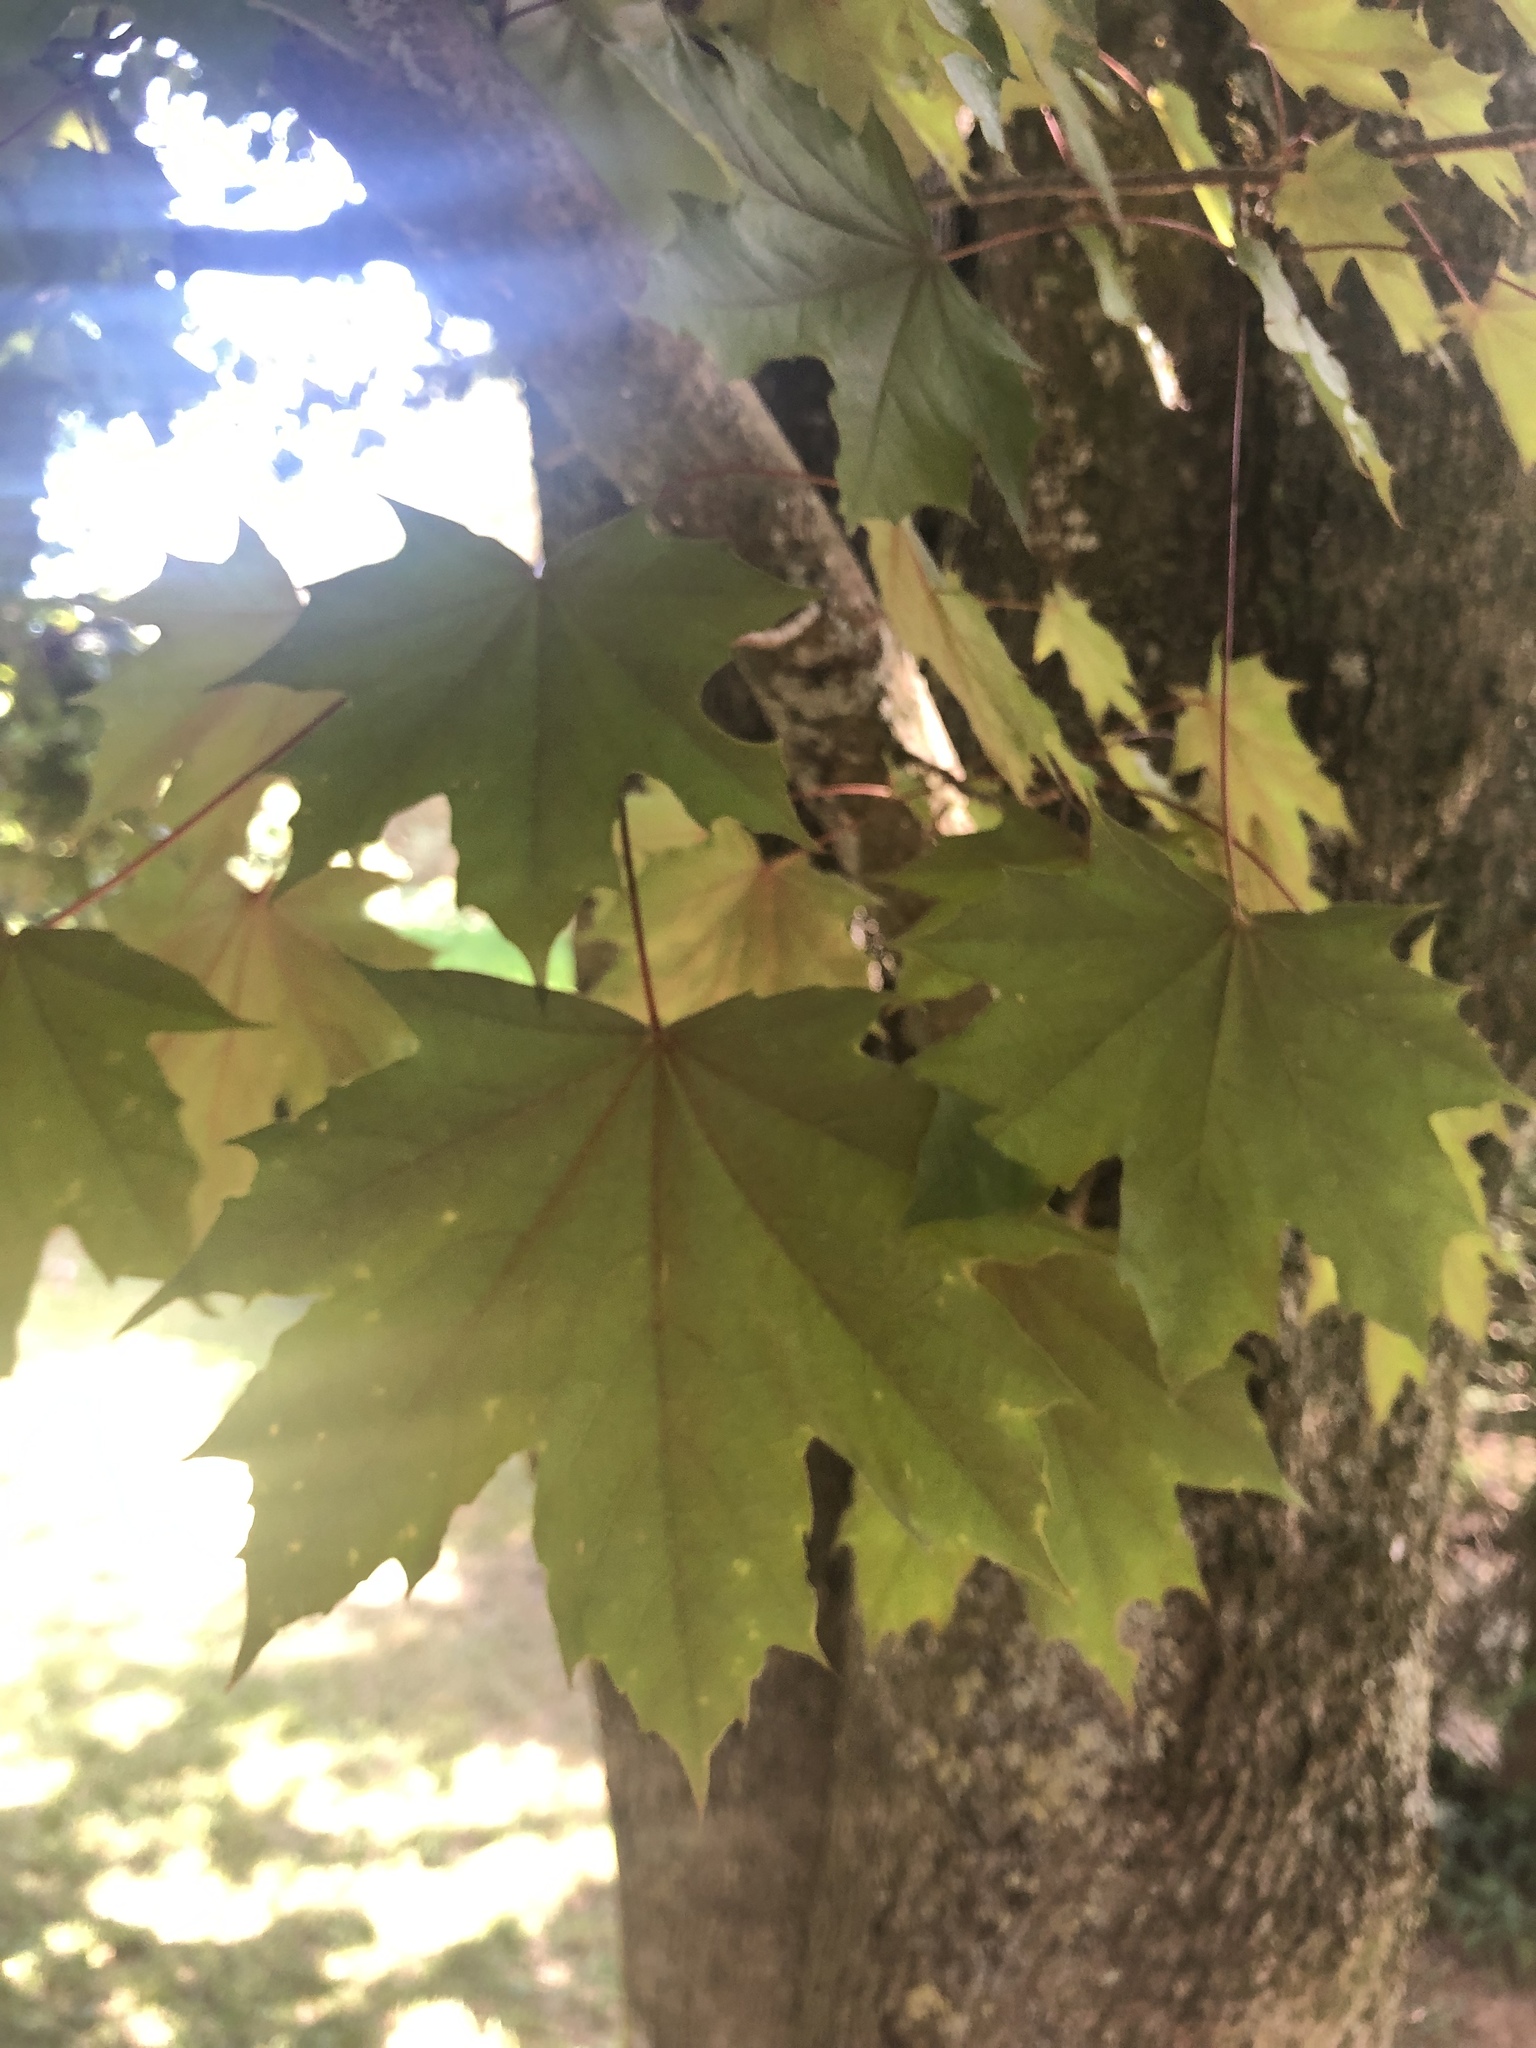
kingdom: Plantae
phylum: Tracheophyta
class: Magnoliopsida
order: Sapindales
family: Sapindaceae
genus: Acer
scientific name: Acer platanoides
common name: Norway maple
